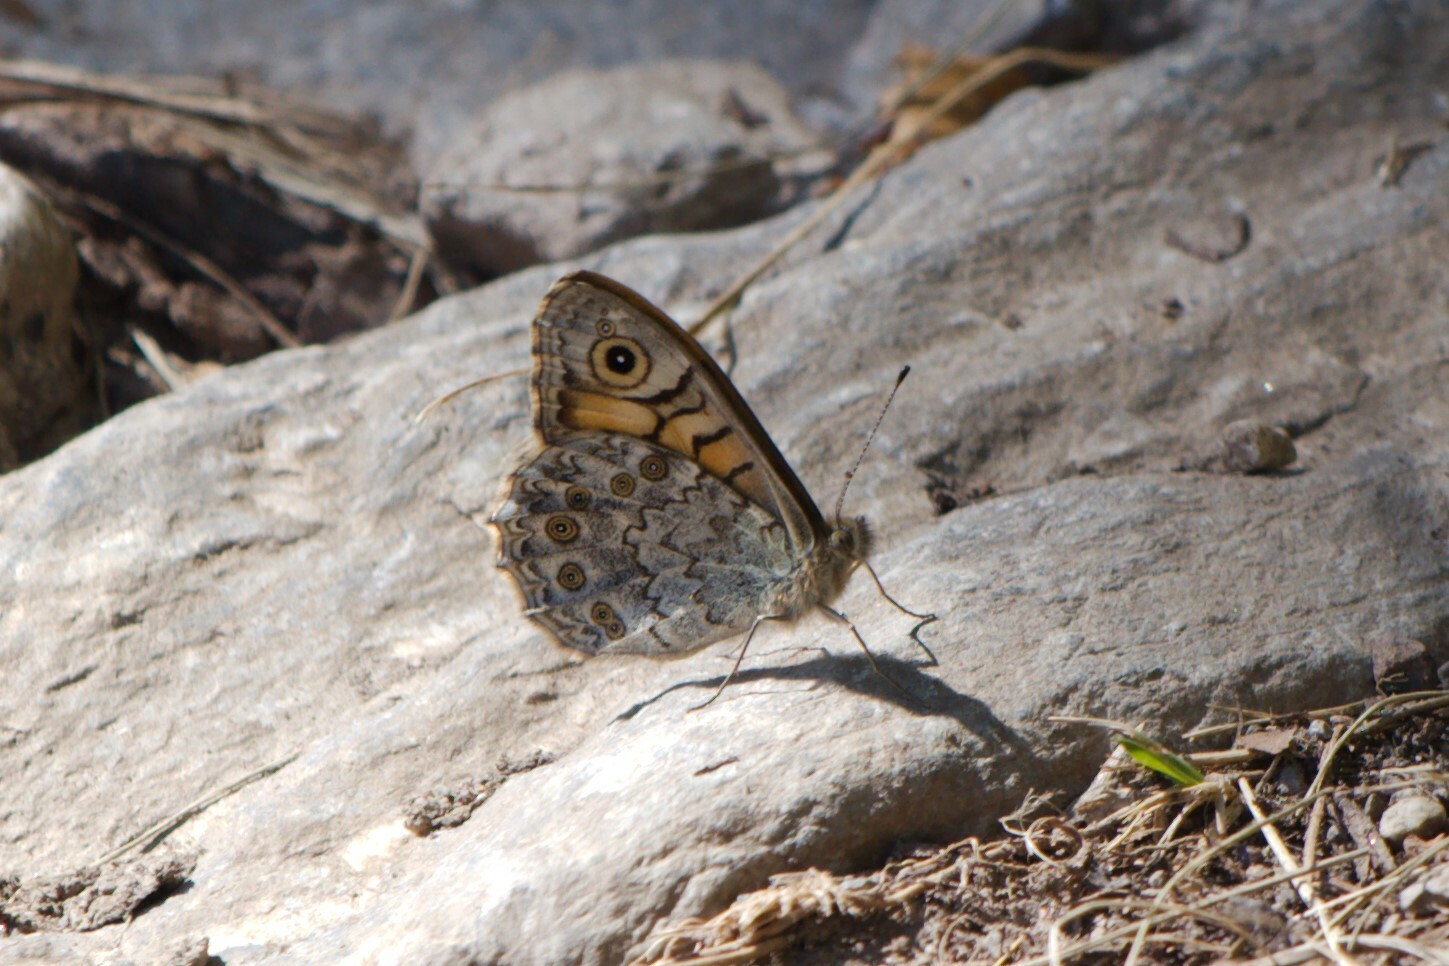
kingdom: Animalia
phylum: Arthropoda
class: Insecta
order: Lepidoptera
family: Nymphalidae
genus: Pararge
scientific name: Pararge Lasiommata megera
